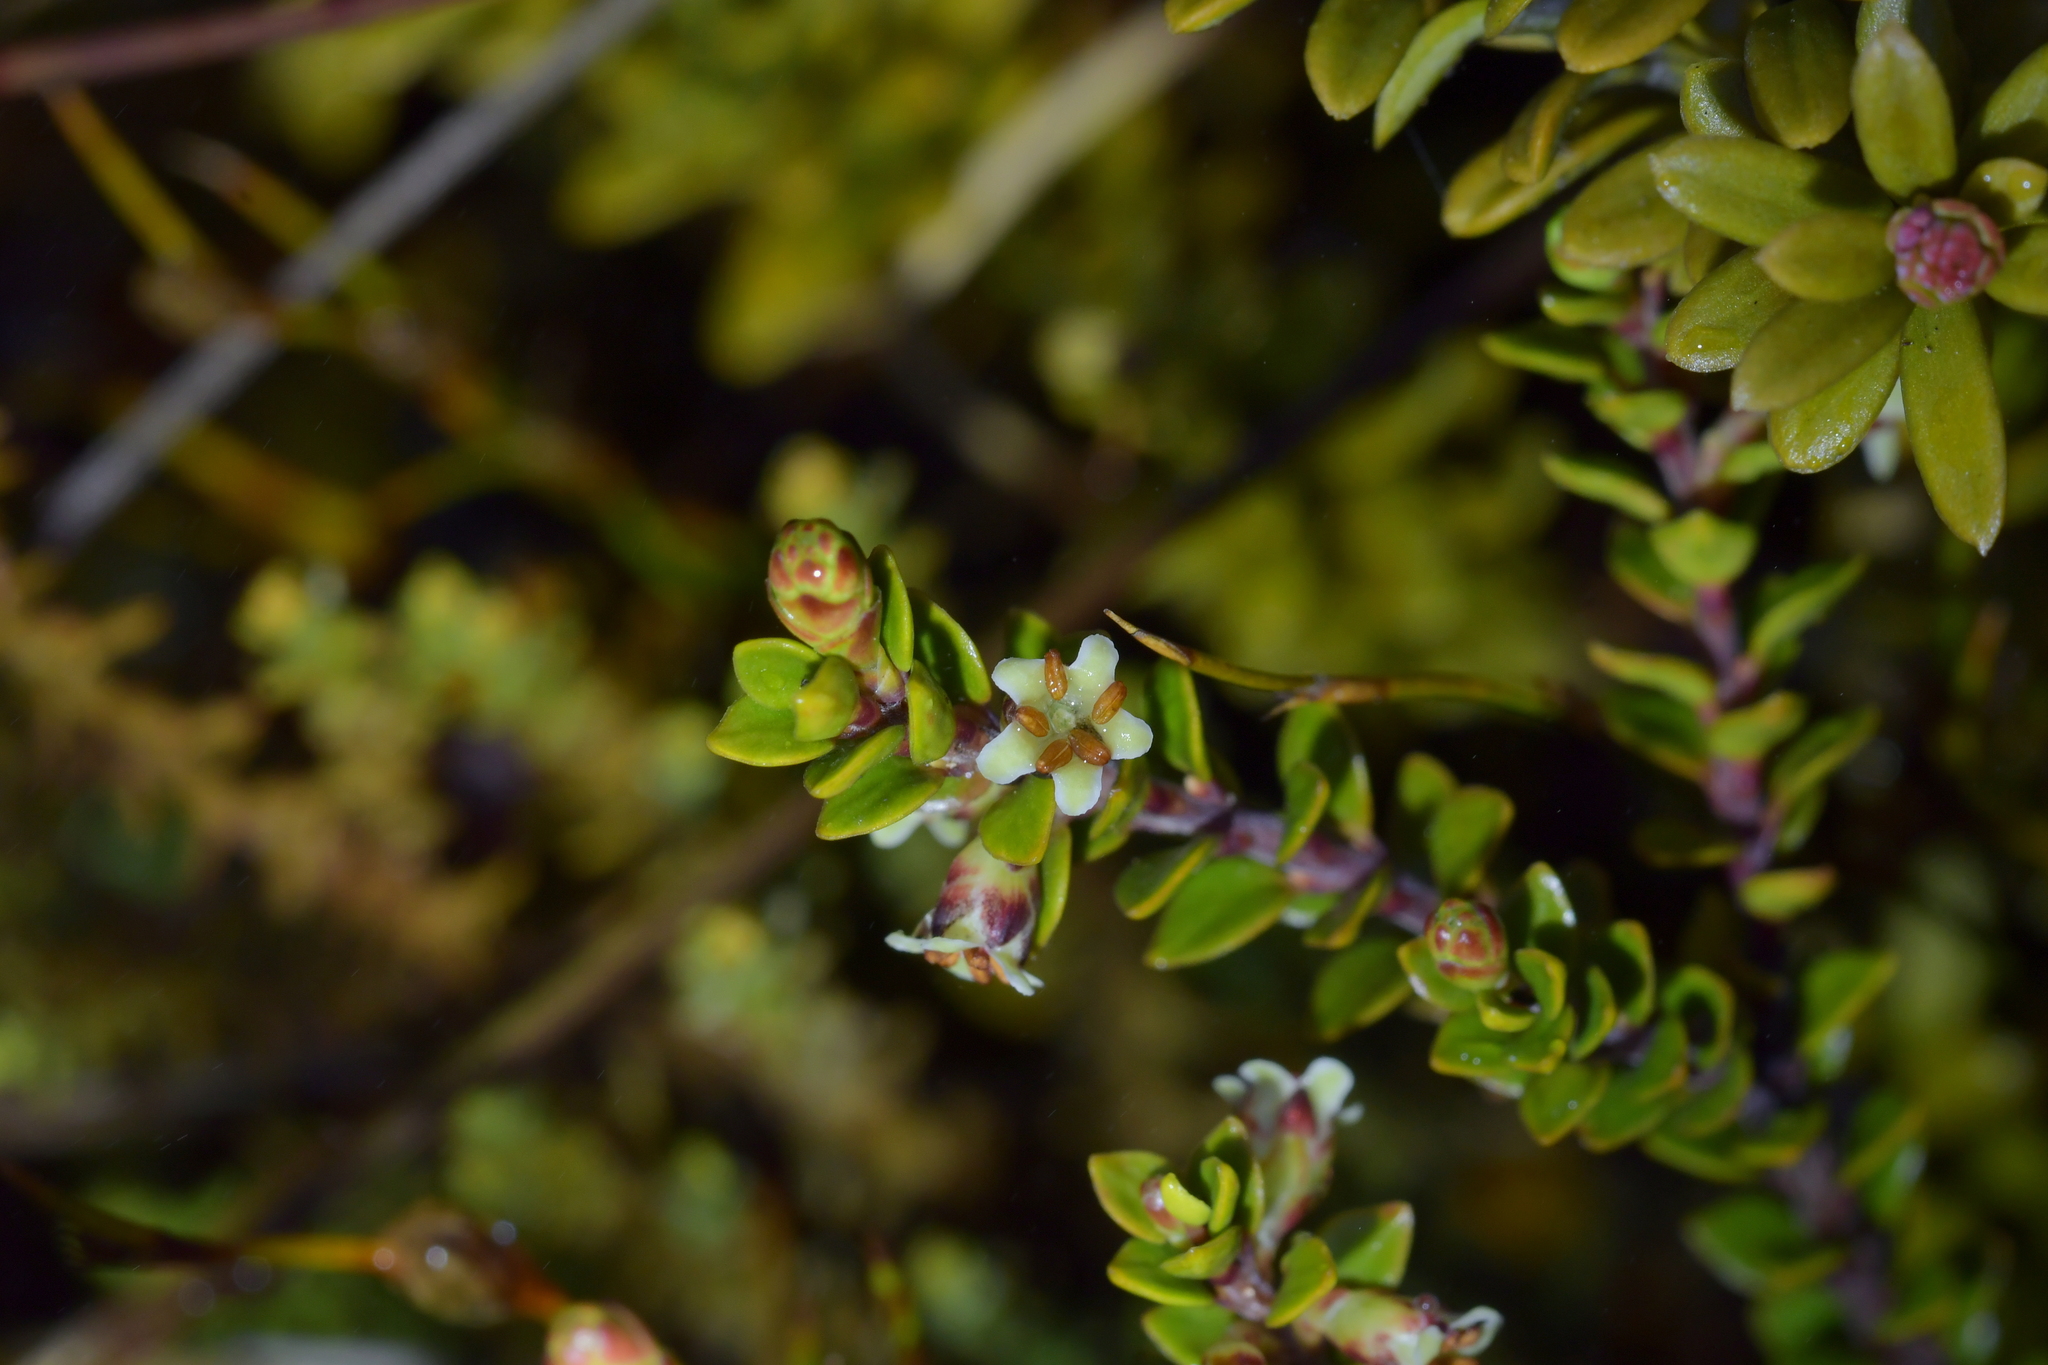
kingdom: Plantae
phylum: Tracheophyta
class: Magnoliopsida
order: Ericales
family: Ericaceae
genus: Epacris
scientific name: Epacris alpina
